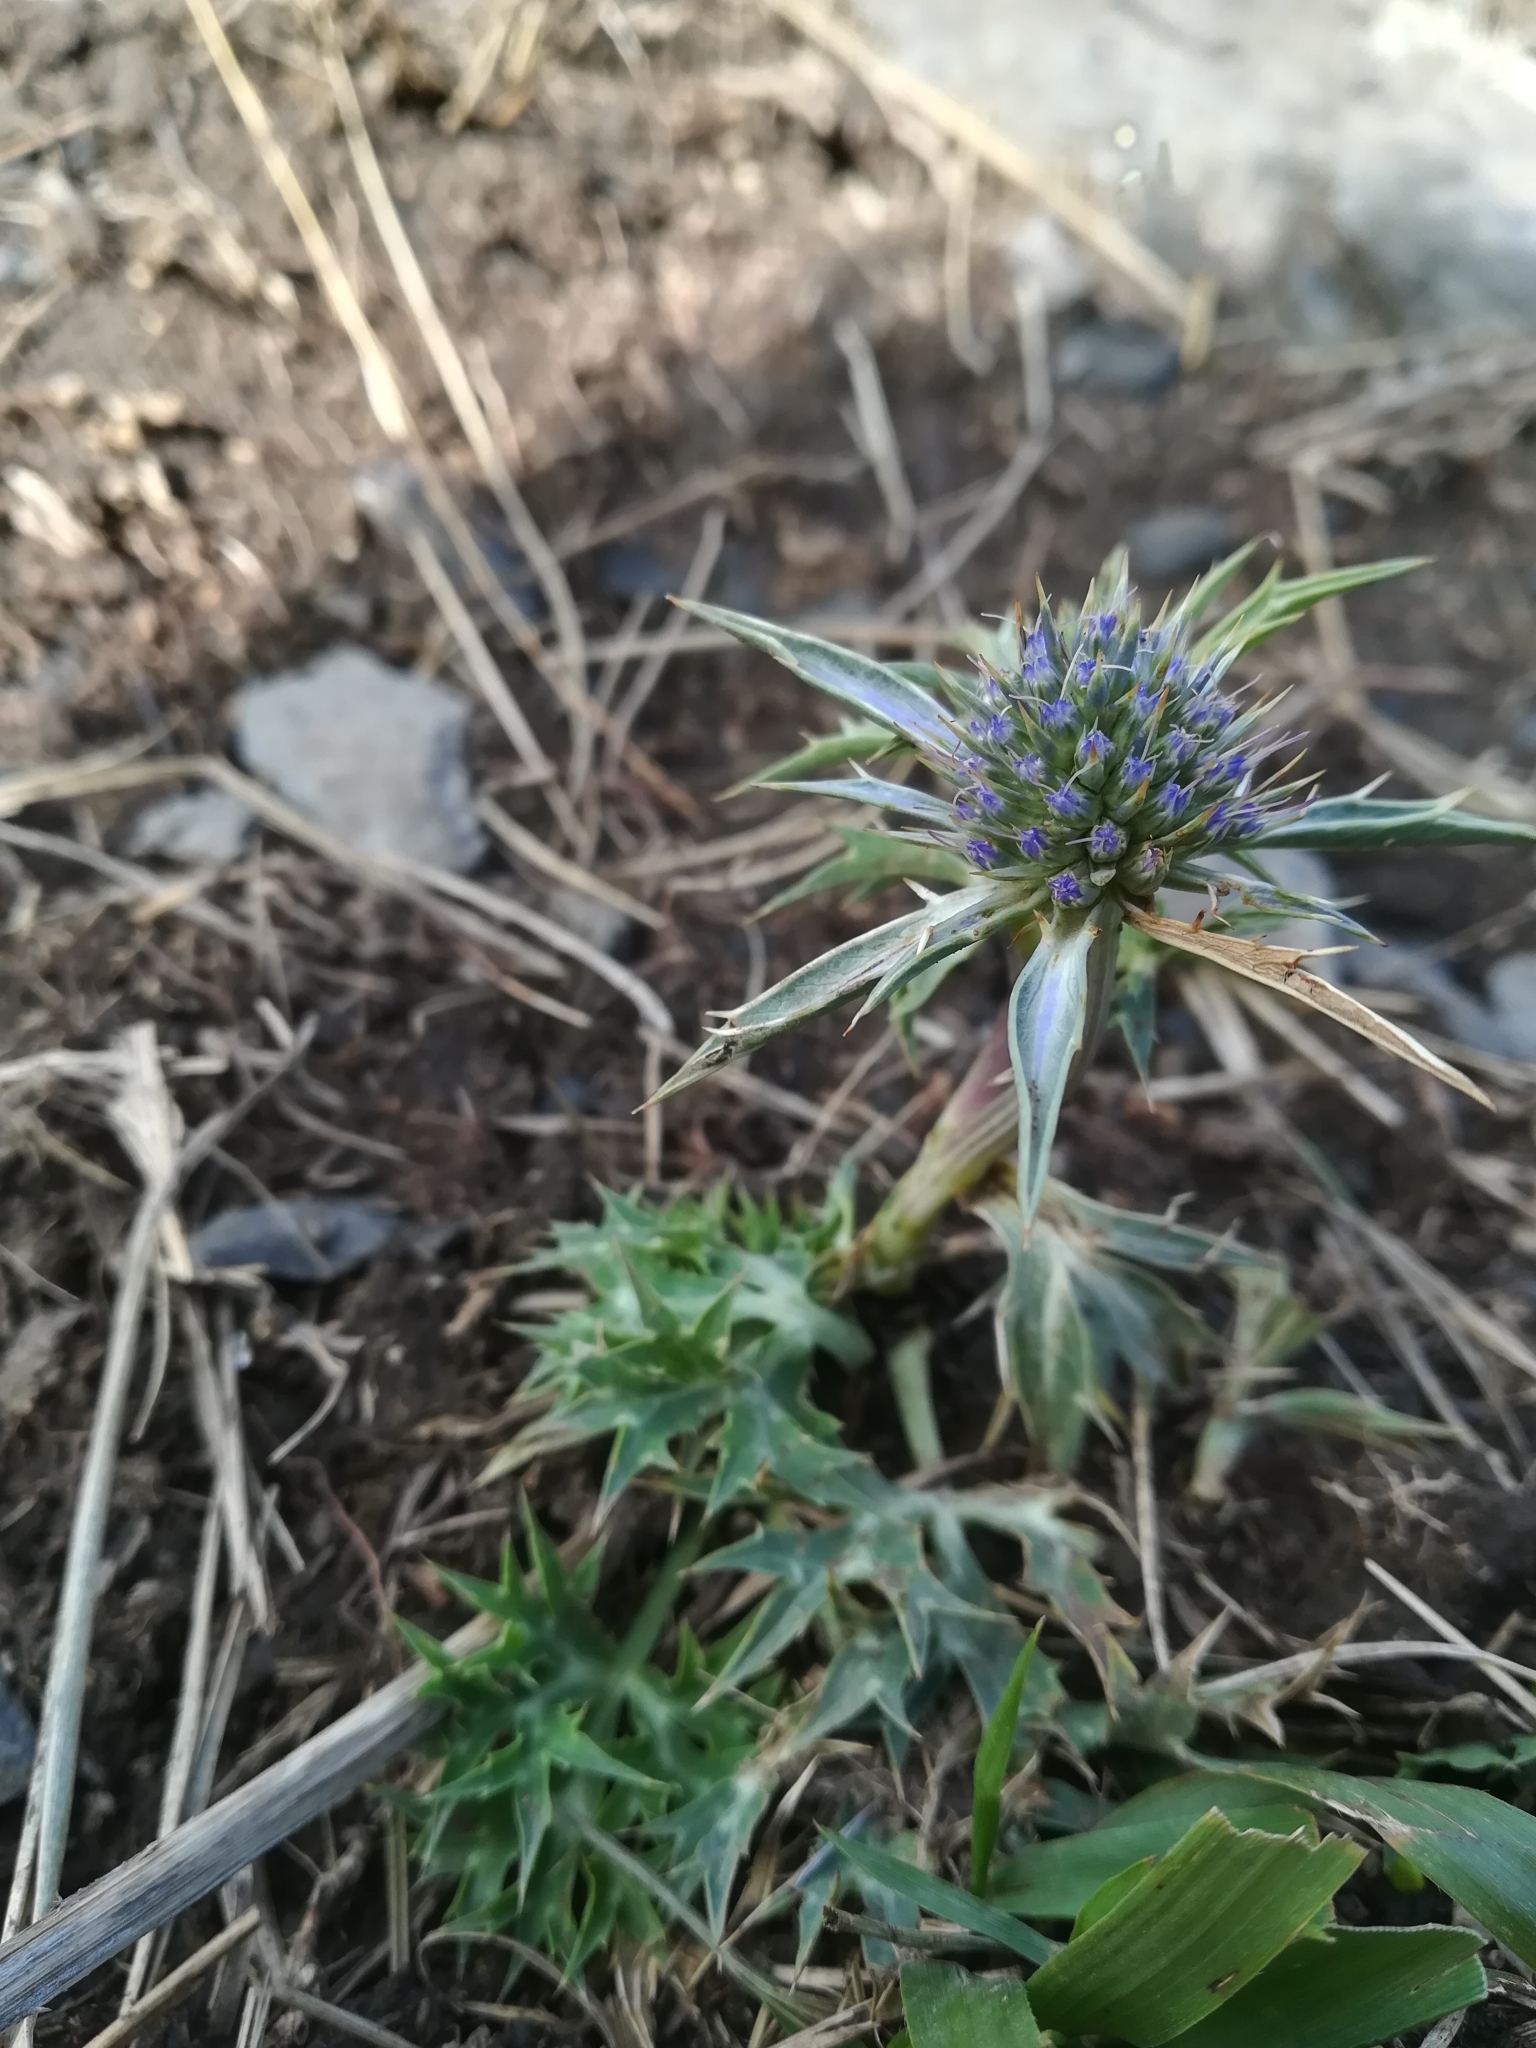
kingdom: Plantae
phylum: Tracheophyta
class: Magnoliopsida
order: Apiales
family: Apiaceae
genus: Eryngium
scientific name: Eryngium bourgatii
